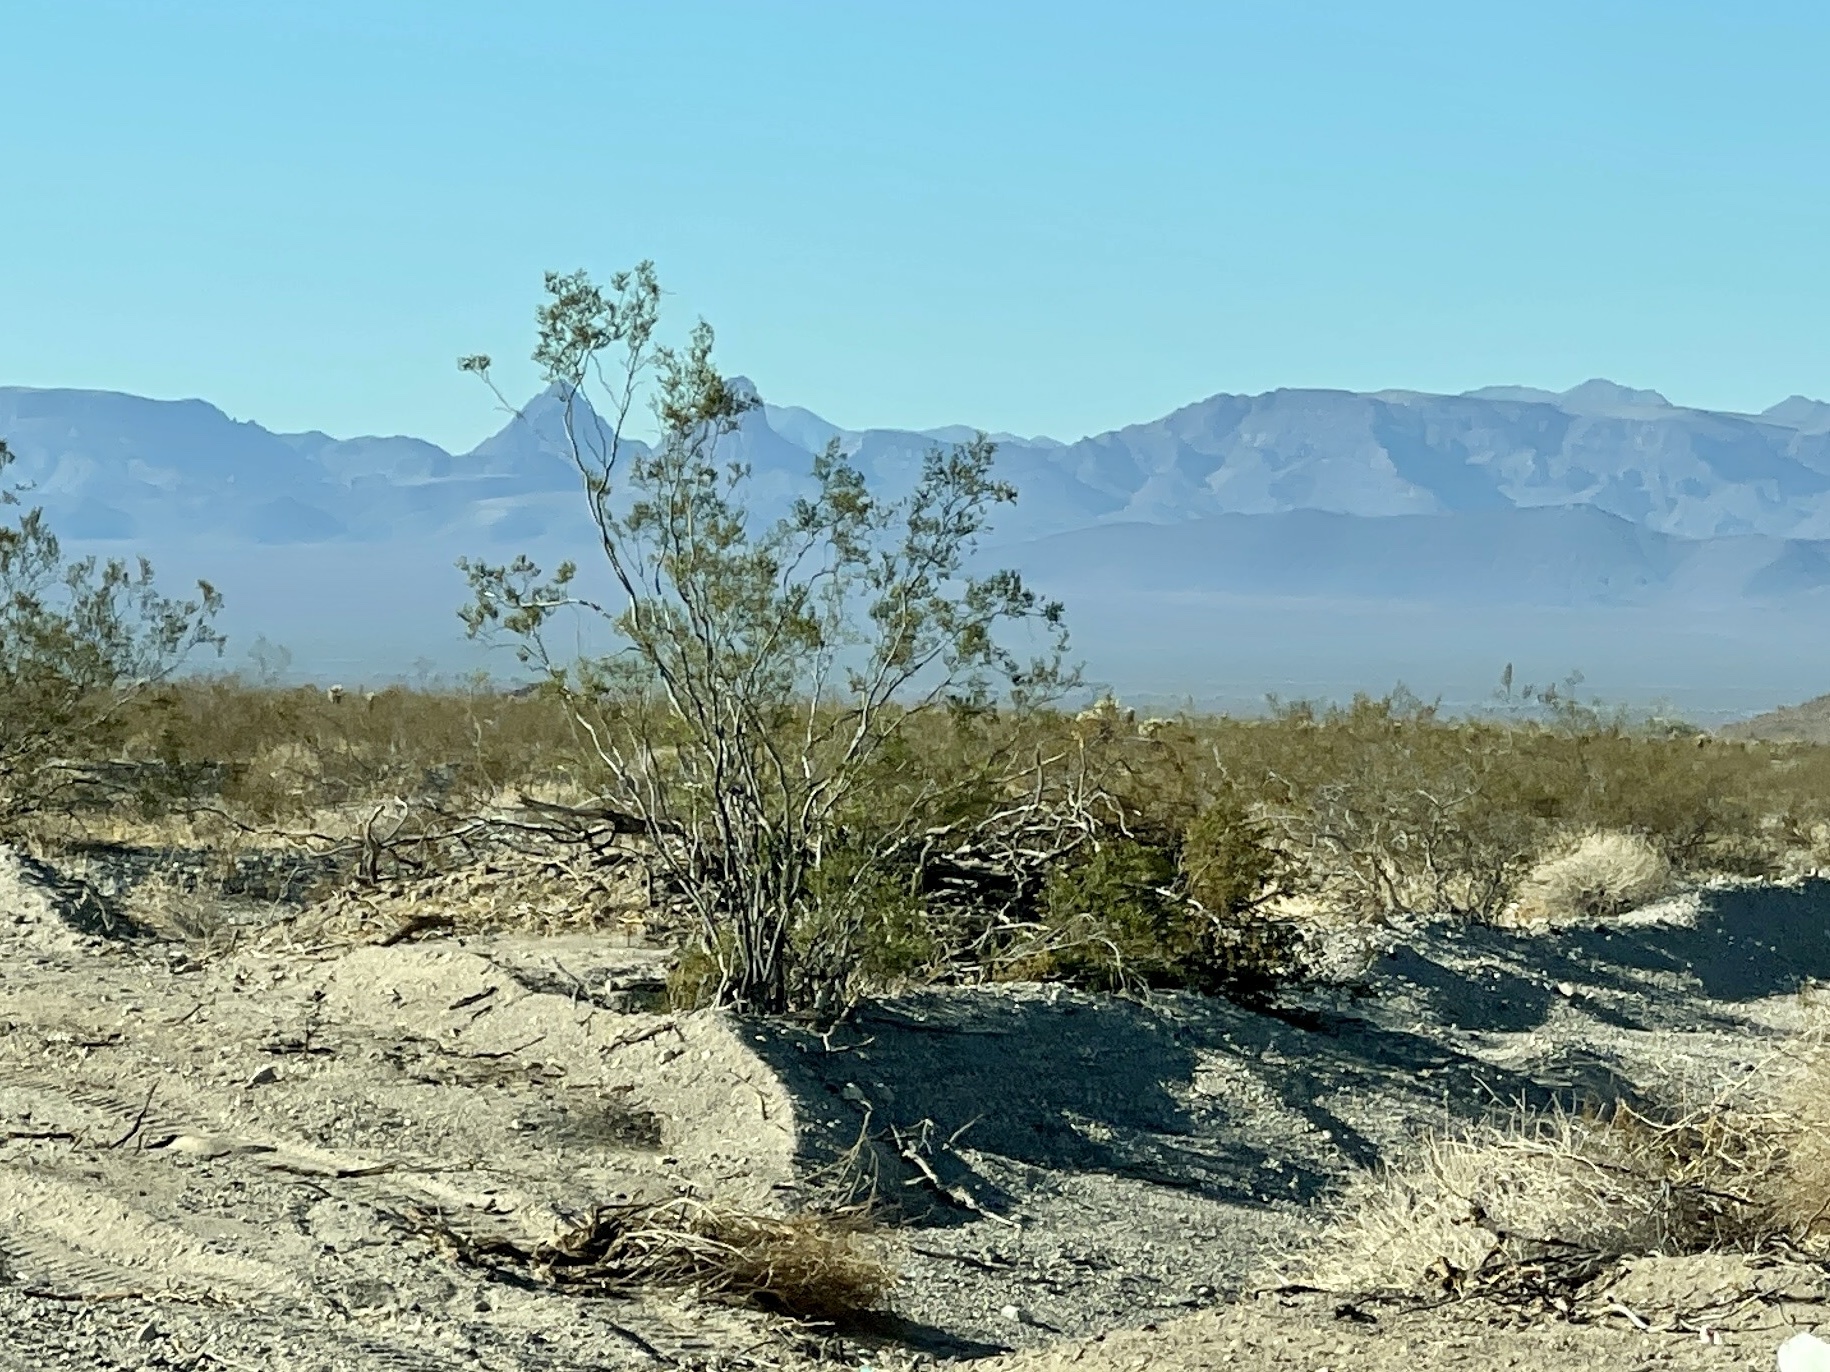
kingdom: Plantae
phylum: Tracheophyta
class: Magnoliopsida
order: Zygophyllales
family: Zygophyllaceae
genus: Larrea
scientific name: Larrea tridentata
